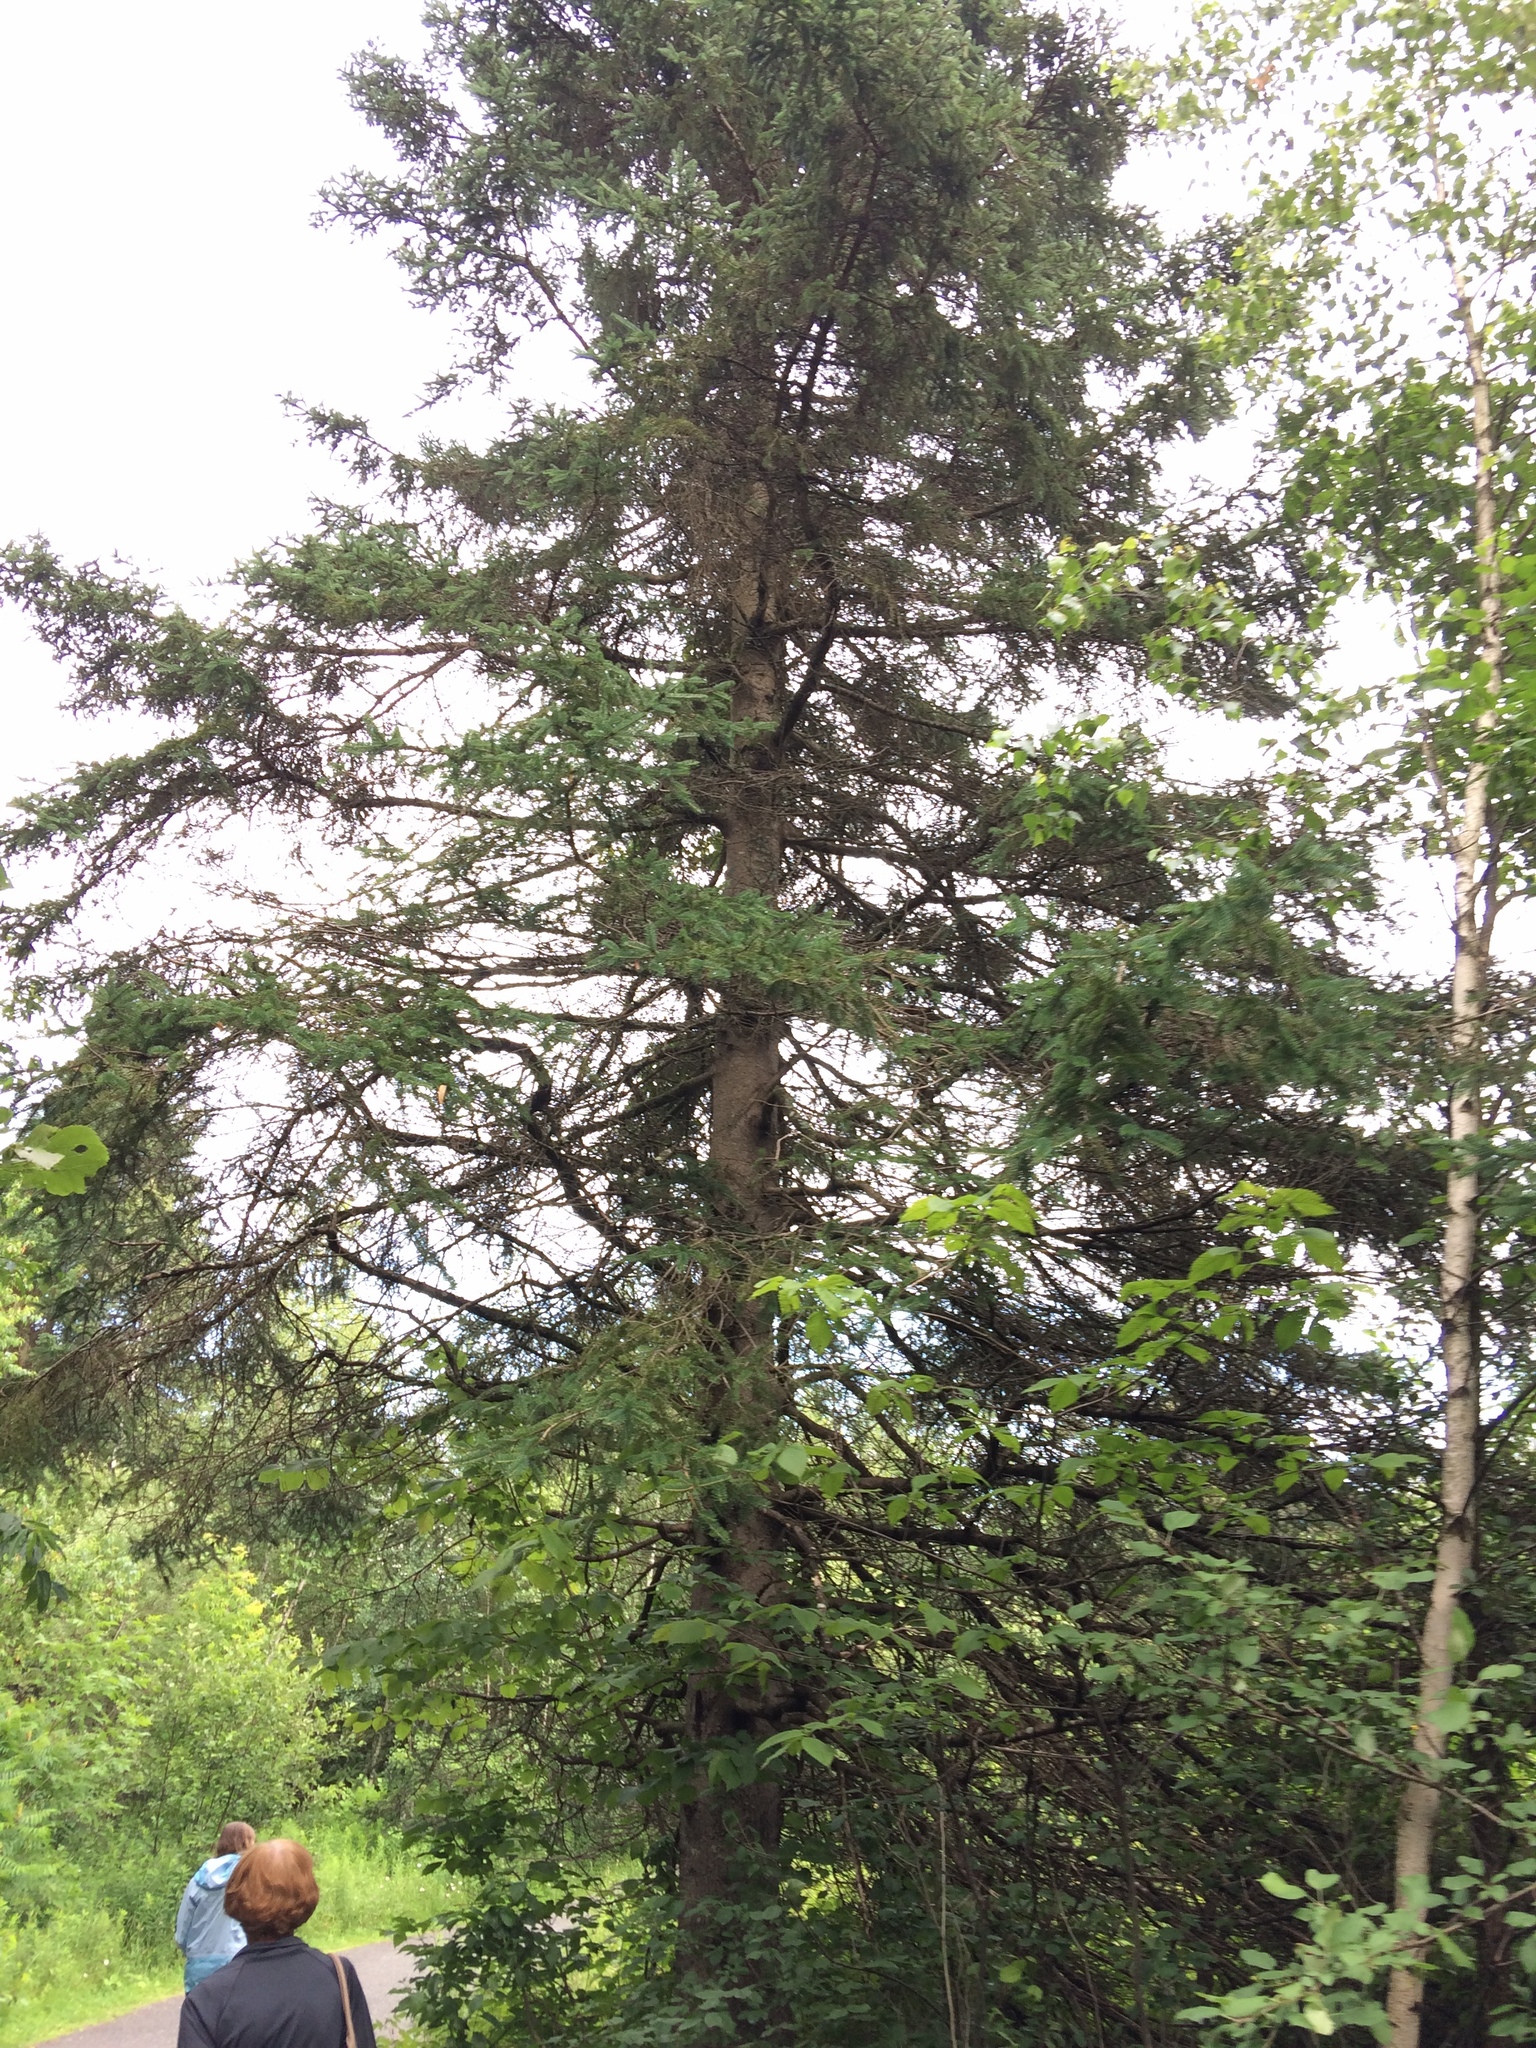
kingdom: Plantae
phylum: Tracheophyta
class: Pinopsida
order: Pinales
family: Pinaceae
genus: Picea
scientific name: Picea glauca
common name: White spruce
